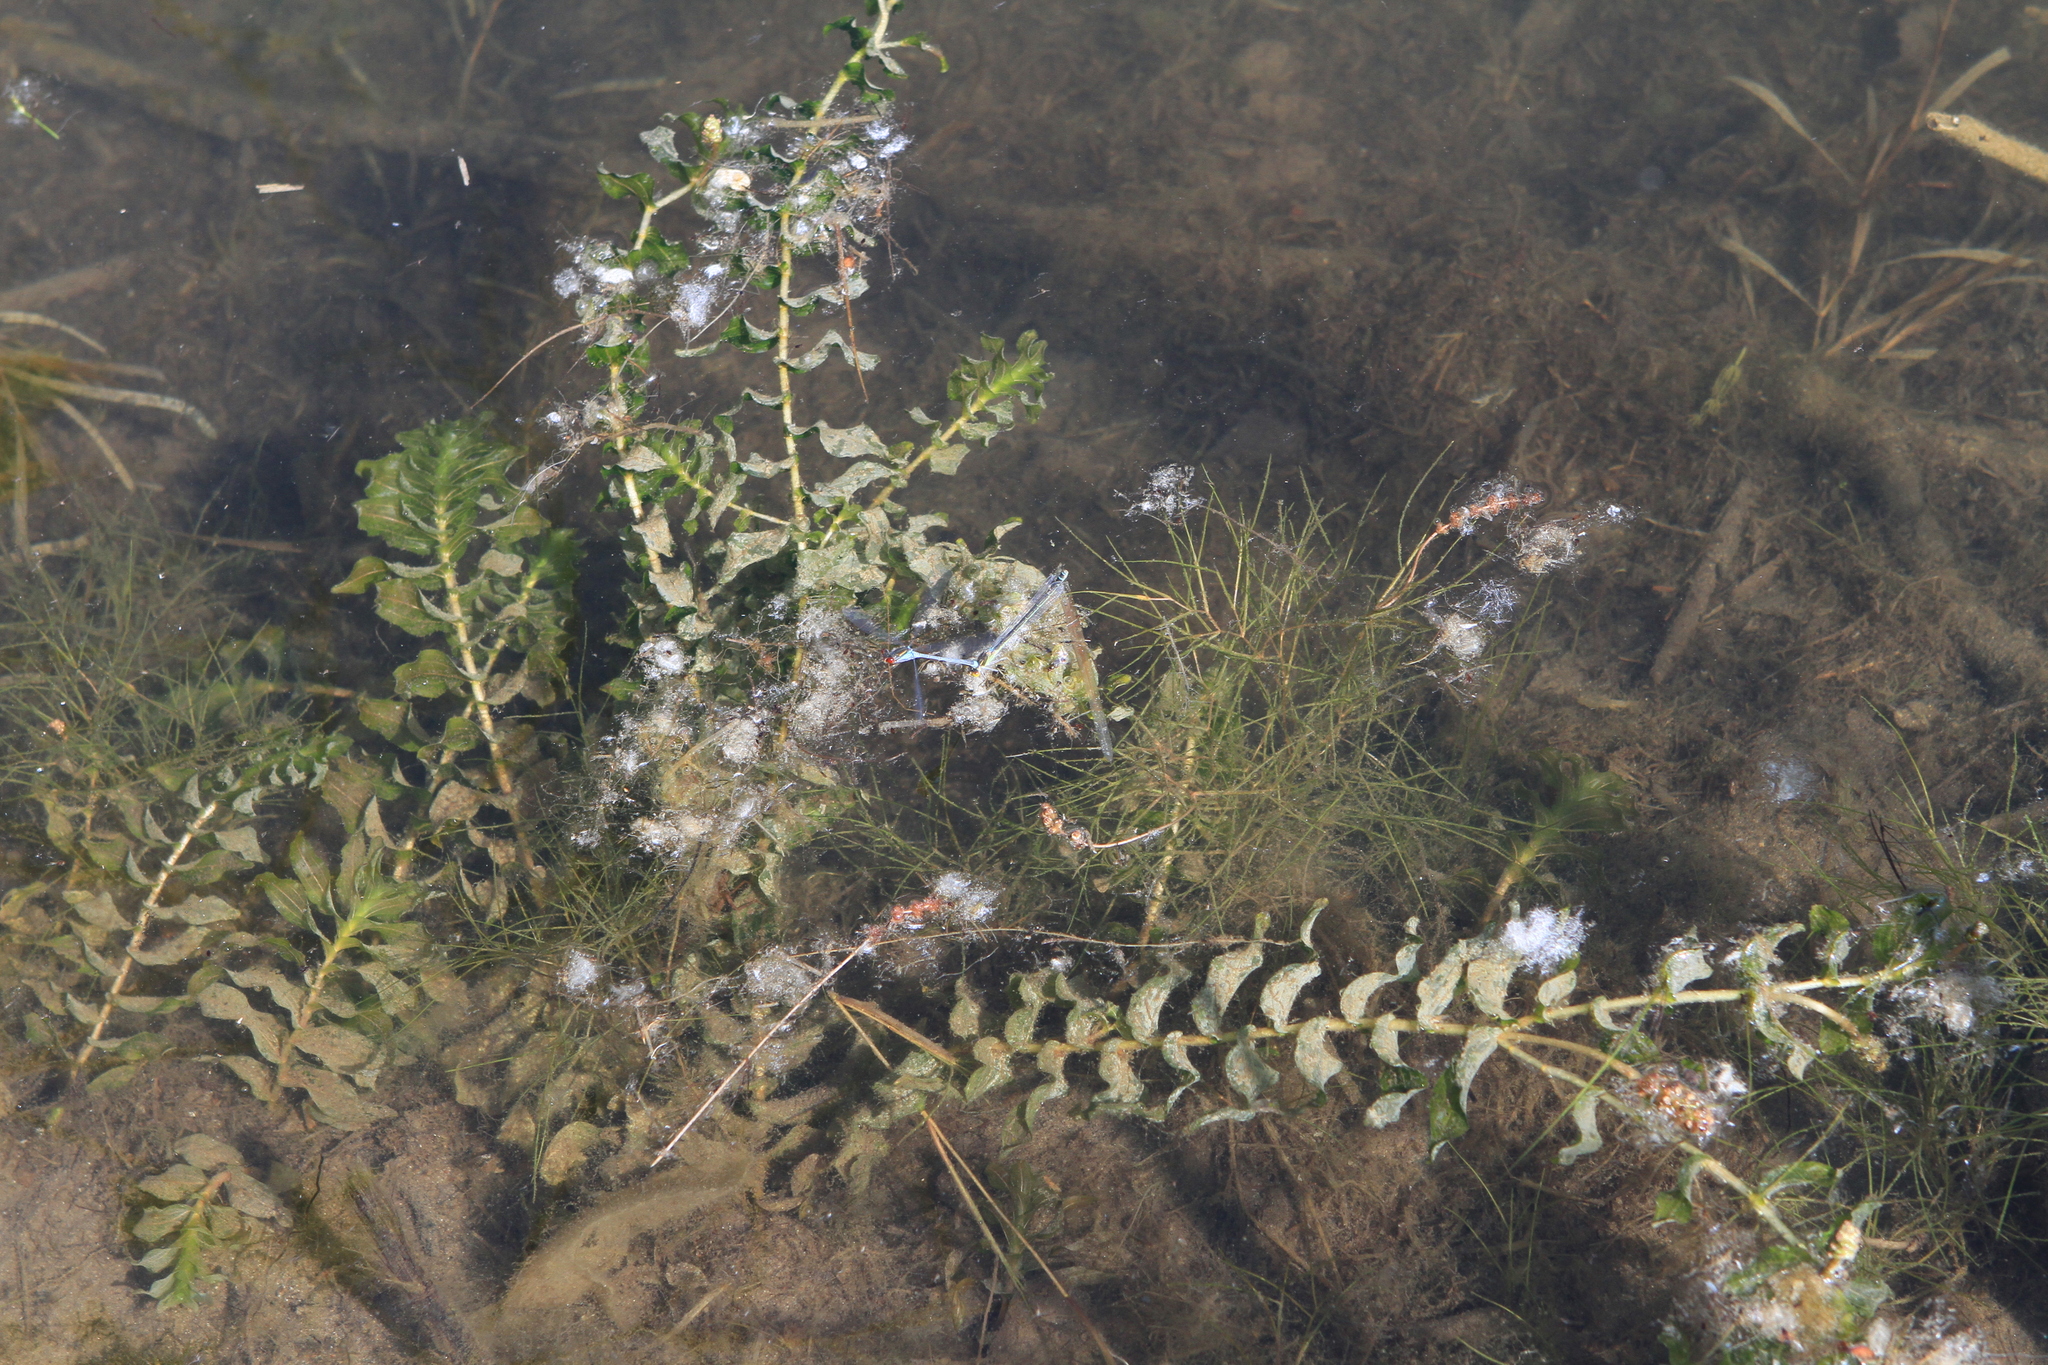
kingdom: Plantae
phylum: Tracheophyta
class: Liliopsida
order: Alismatales
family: Potamogetonaceae
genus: Potamogeton
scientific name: Potamogeton perfoliatus
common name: Perfoliate pondweed
